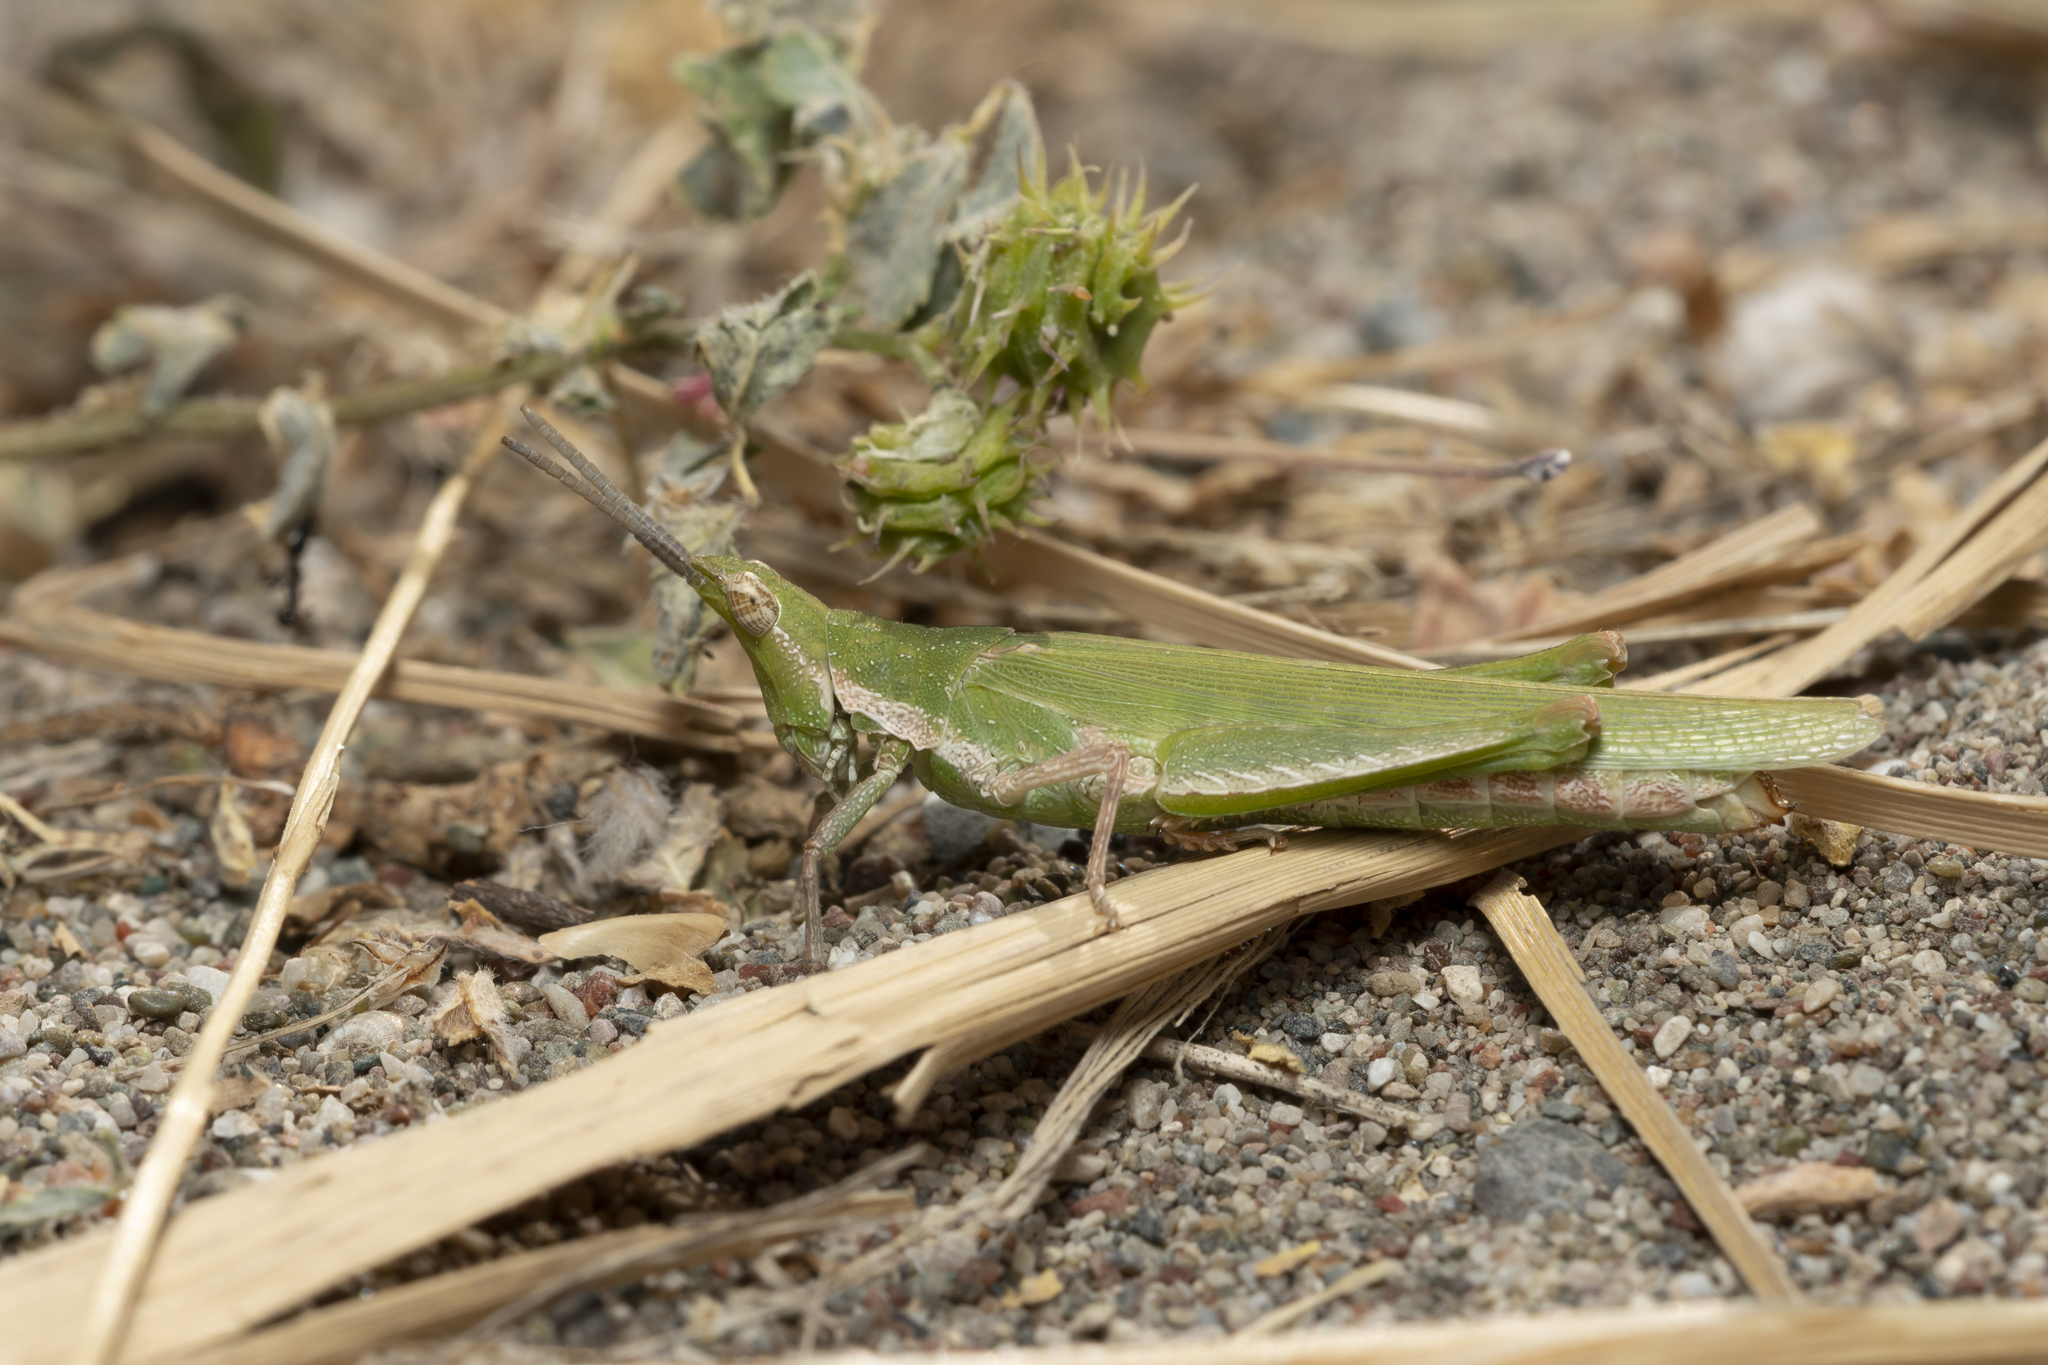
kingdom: Animalia
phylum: Arthropoda
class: Insecta
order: Orthoptera
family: Pyrgomorphidae
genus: Pyrgomorpha
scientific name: Pyrgomorpha conica
